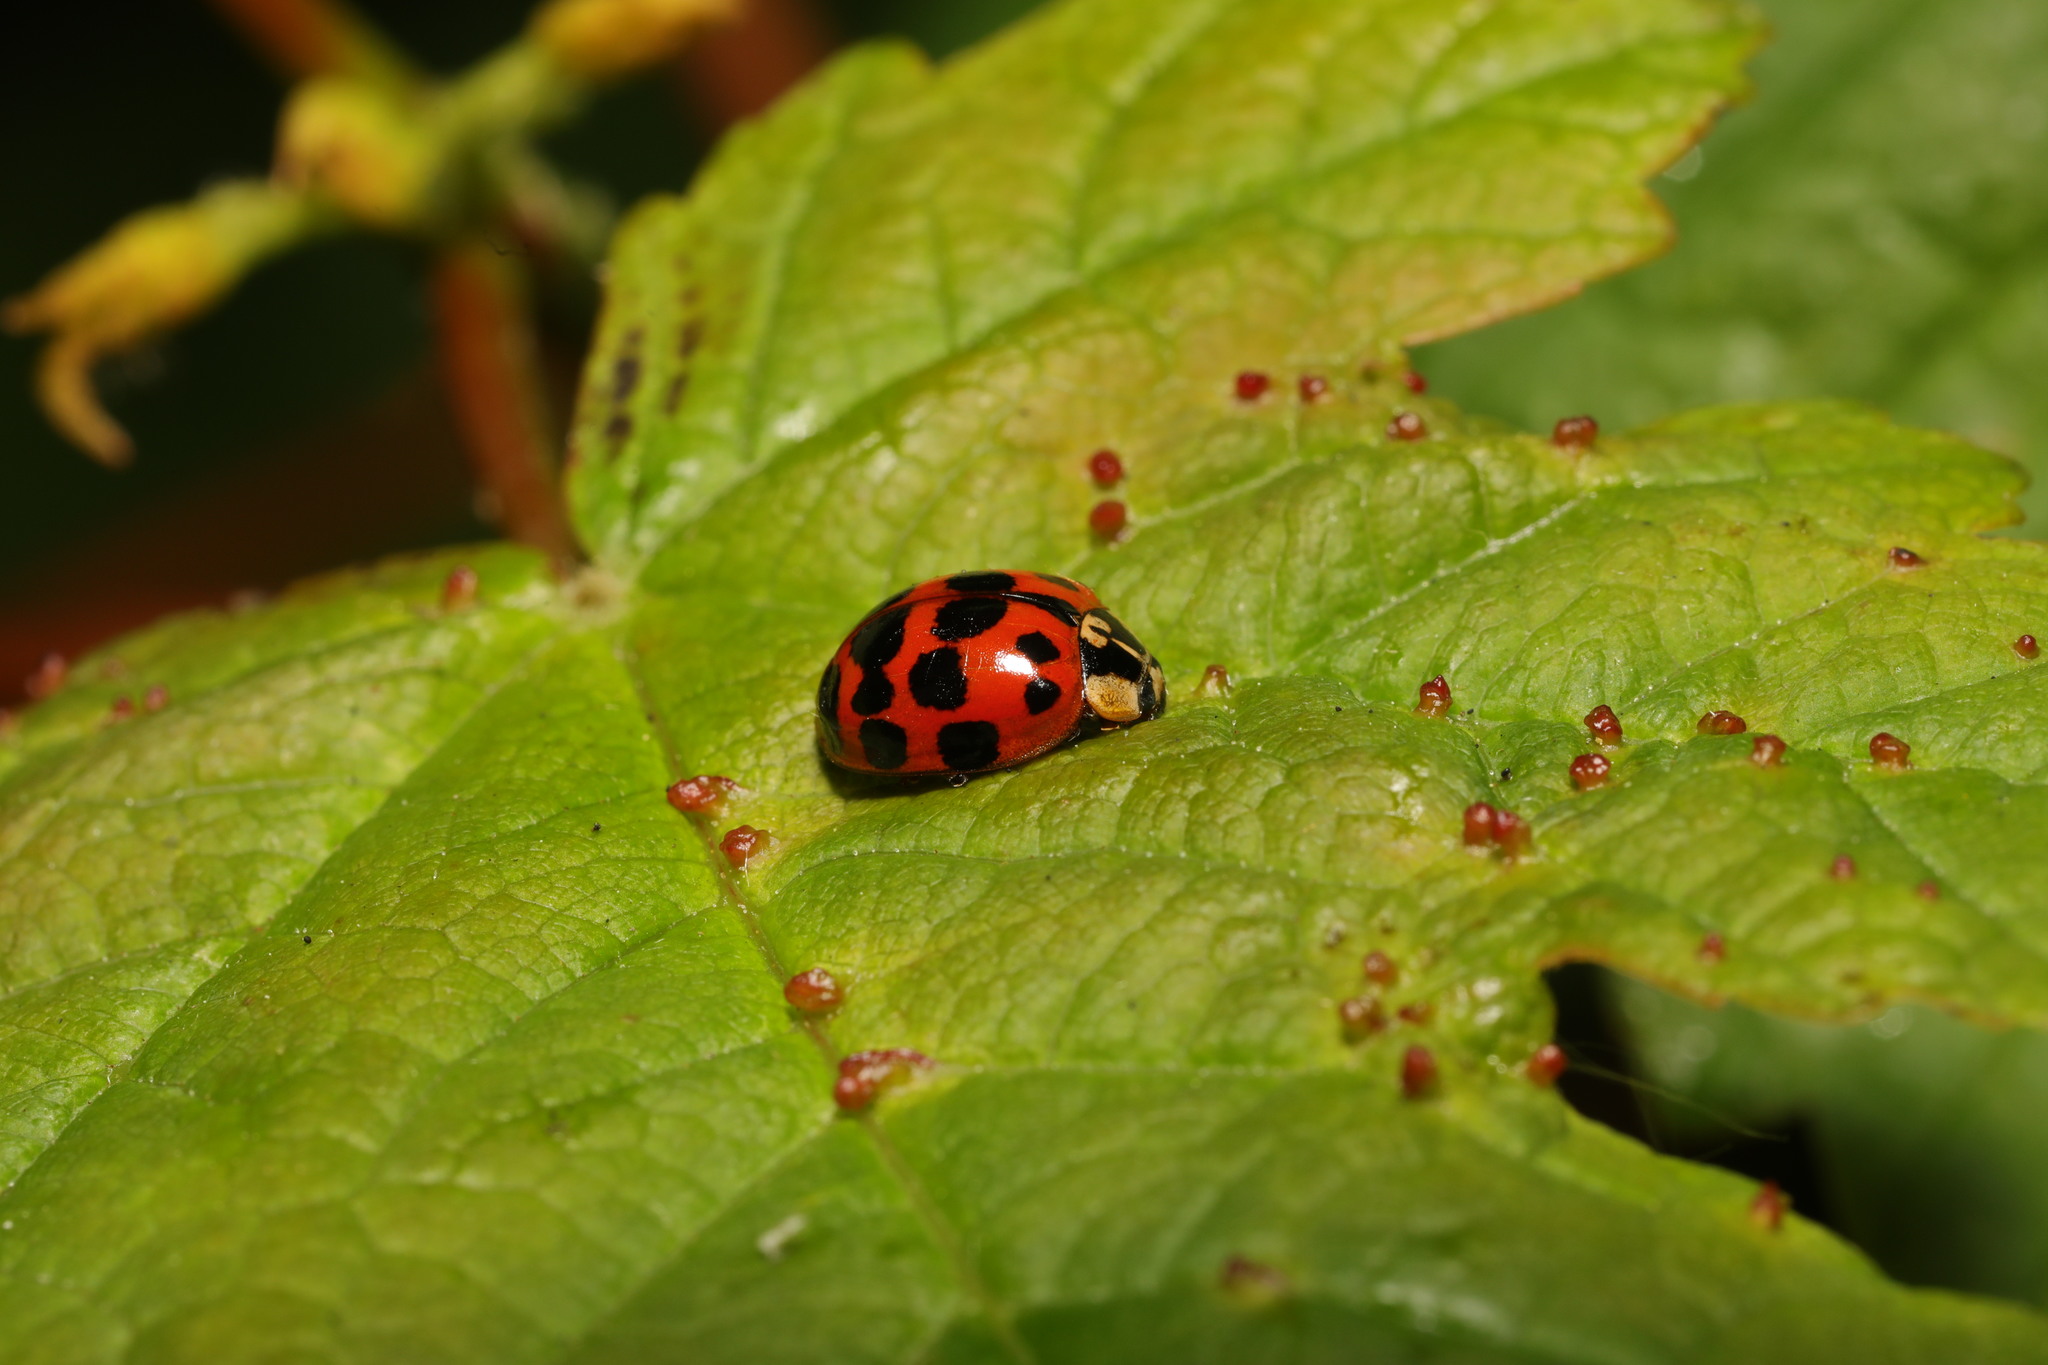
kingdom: Animalia
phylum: Arthropoda
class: Insecta
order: Coleoptera
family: Coccinellidae
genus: Harmonia
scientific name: Harmonia axyridis
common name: Harlequin ladybird
